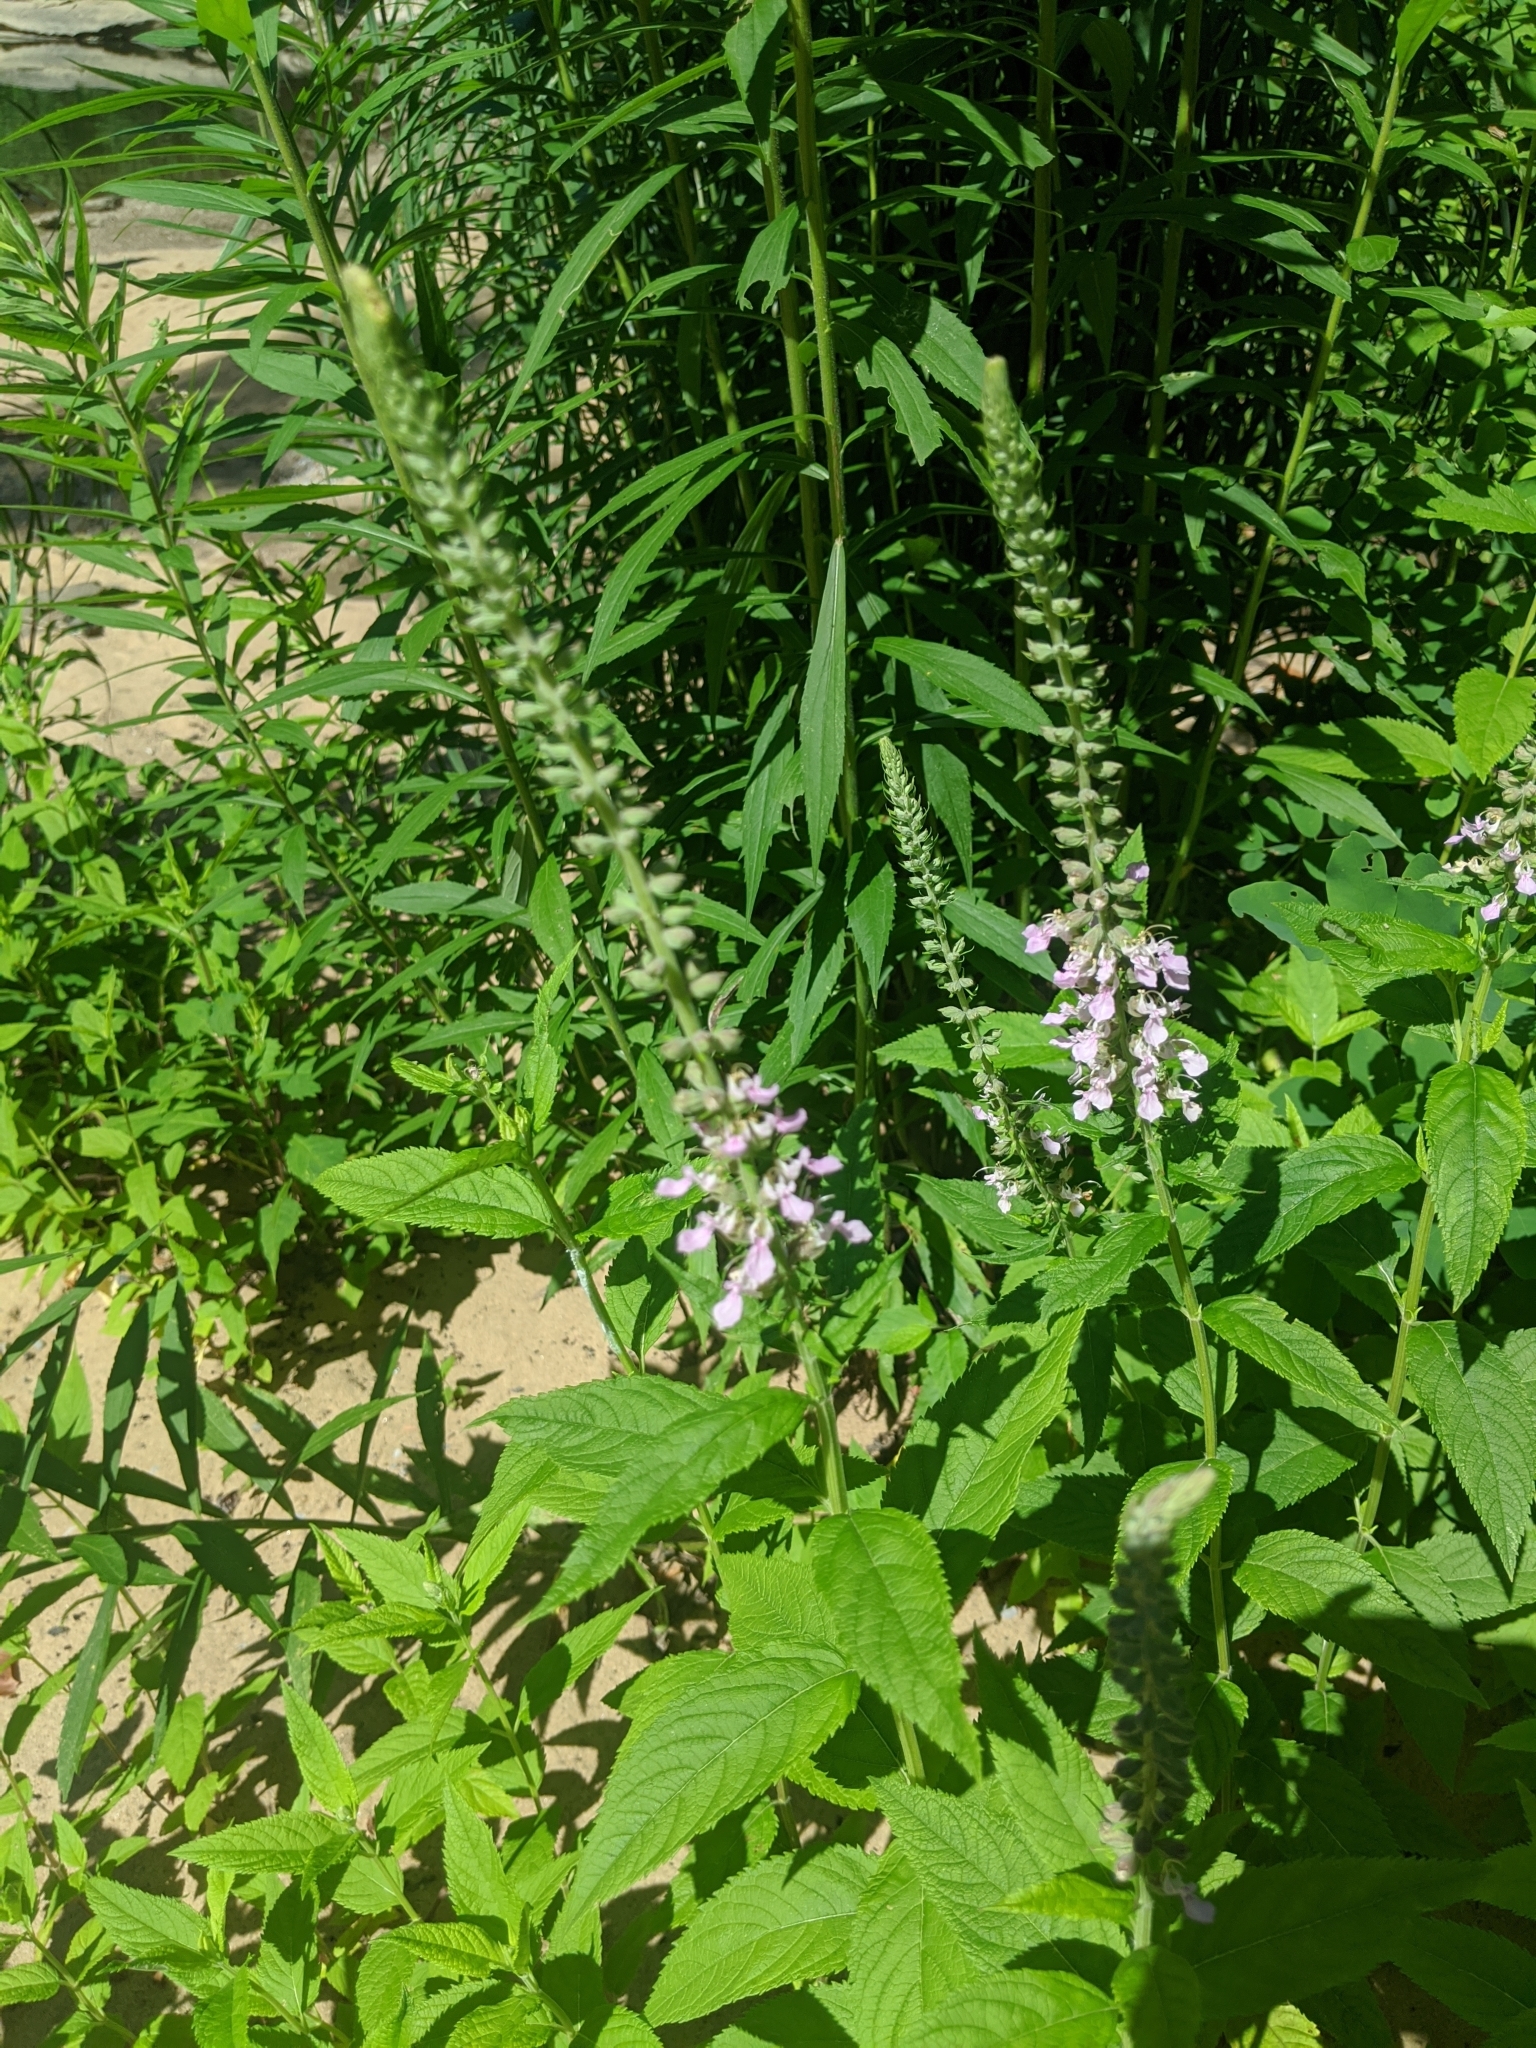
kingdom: Plantae
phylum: Tracheophyta
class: Magnoliopsida
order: Lamiales
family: Lamiaceae
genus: Teucrium
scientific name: Teucrium canadense
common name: American germander
